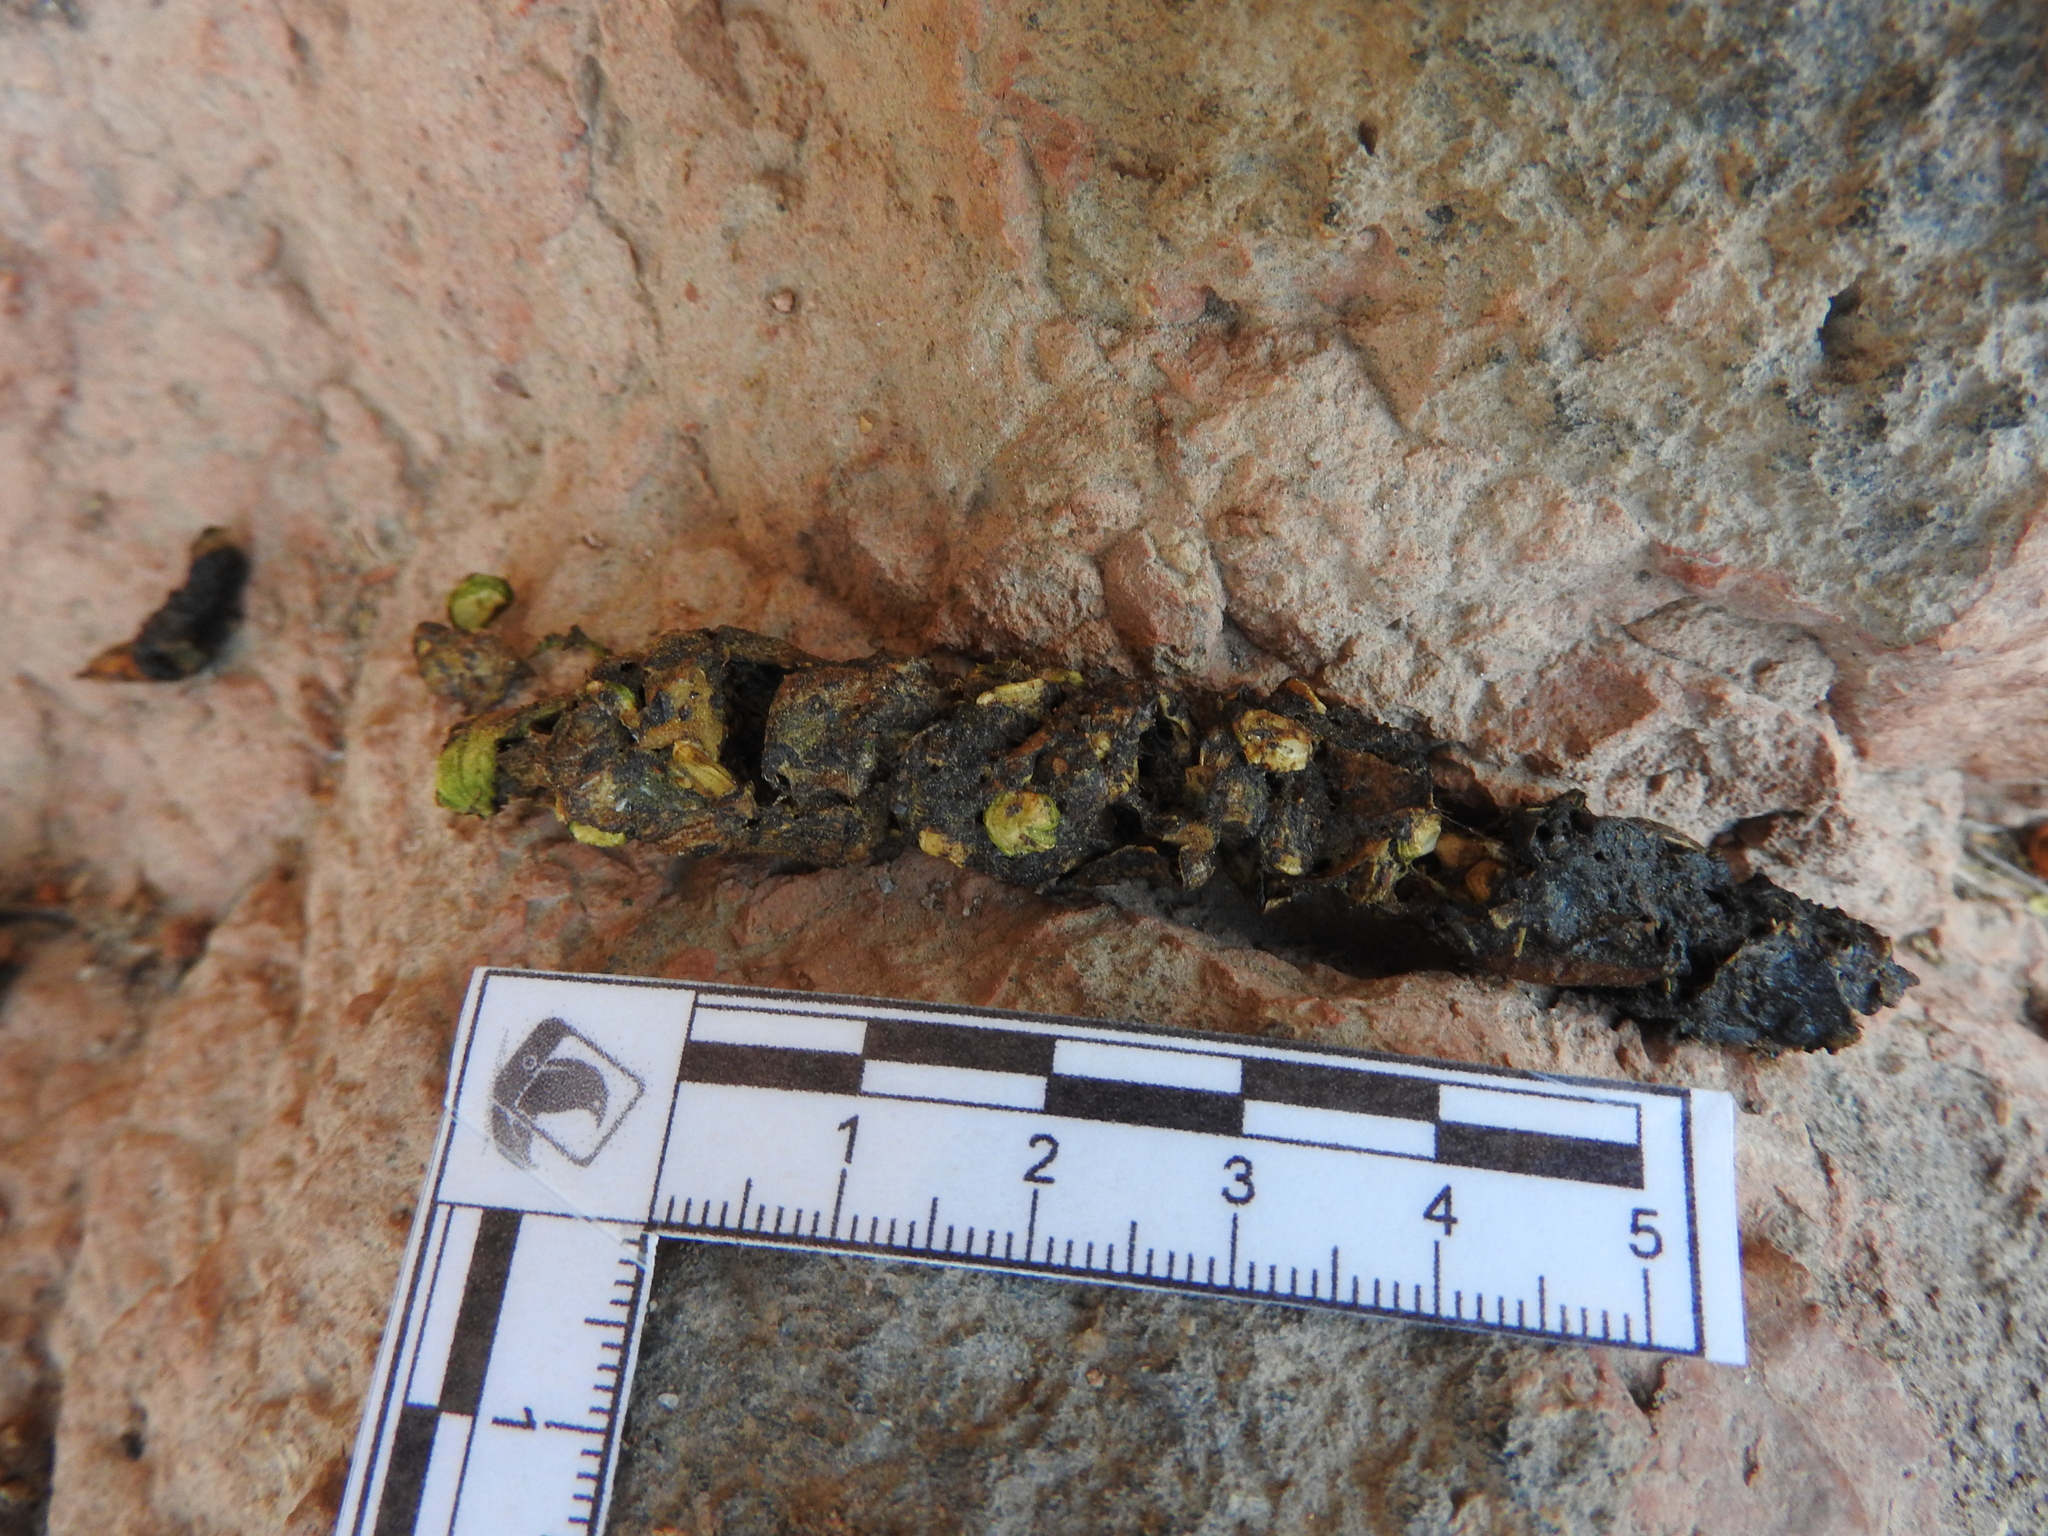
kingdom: Animalia
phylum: Chordata
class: Mammalia
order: Carnivora
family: Procyonidae
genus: Bassariscus
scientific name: Bassariscus astutus
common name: Ringtail
